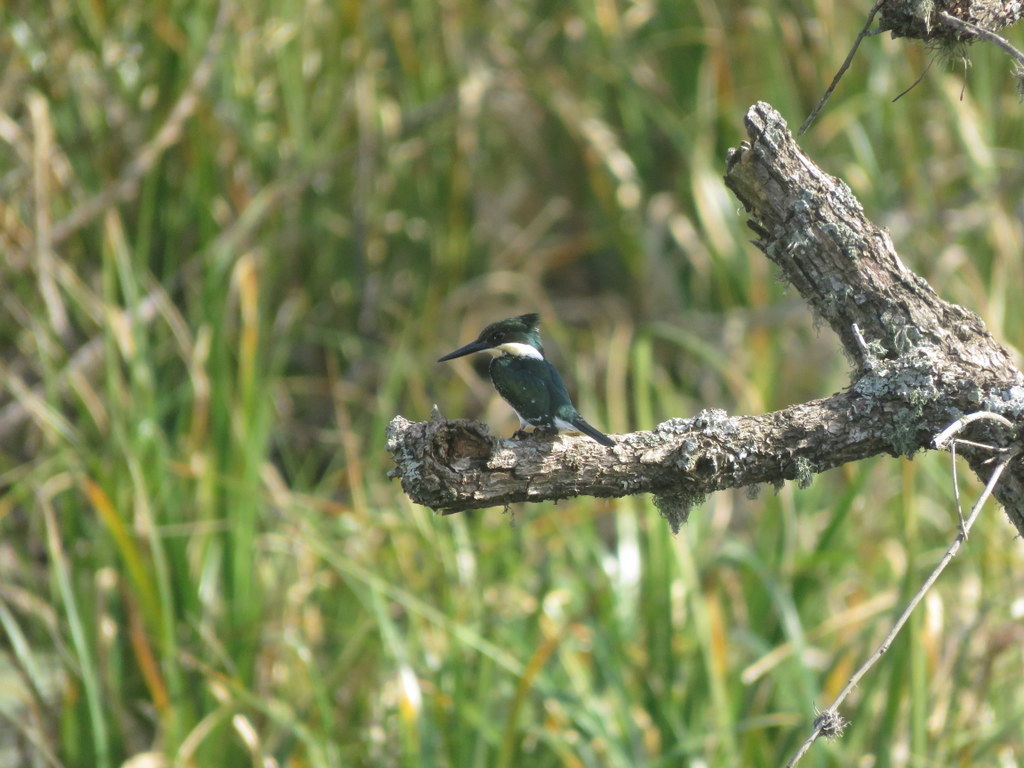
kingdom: Animalia
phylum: Chordata
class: Aves
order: Coraciiformes
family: Alcedinidae
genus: Chloroceryle
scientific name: Chloroceryle americana
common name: Green kingfisher
